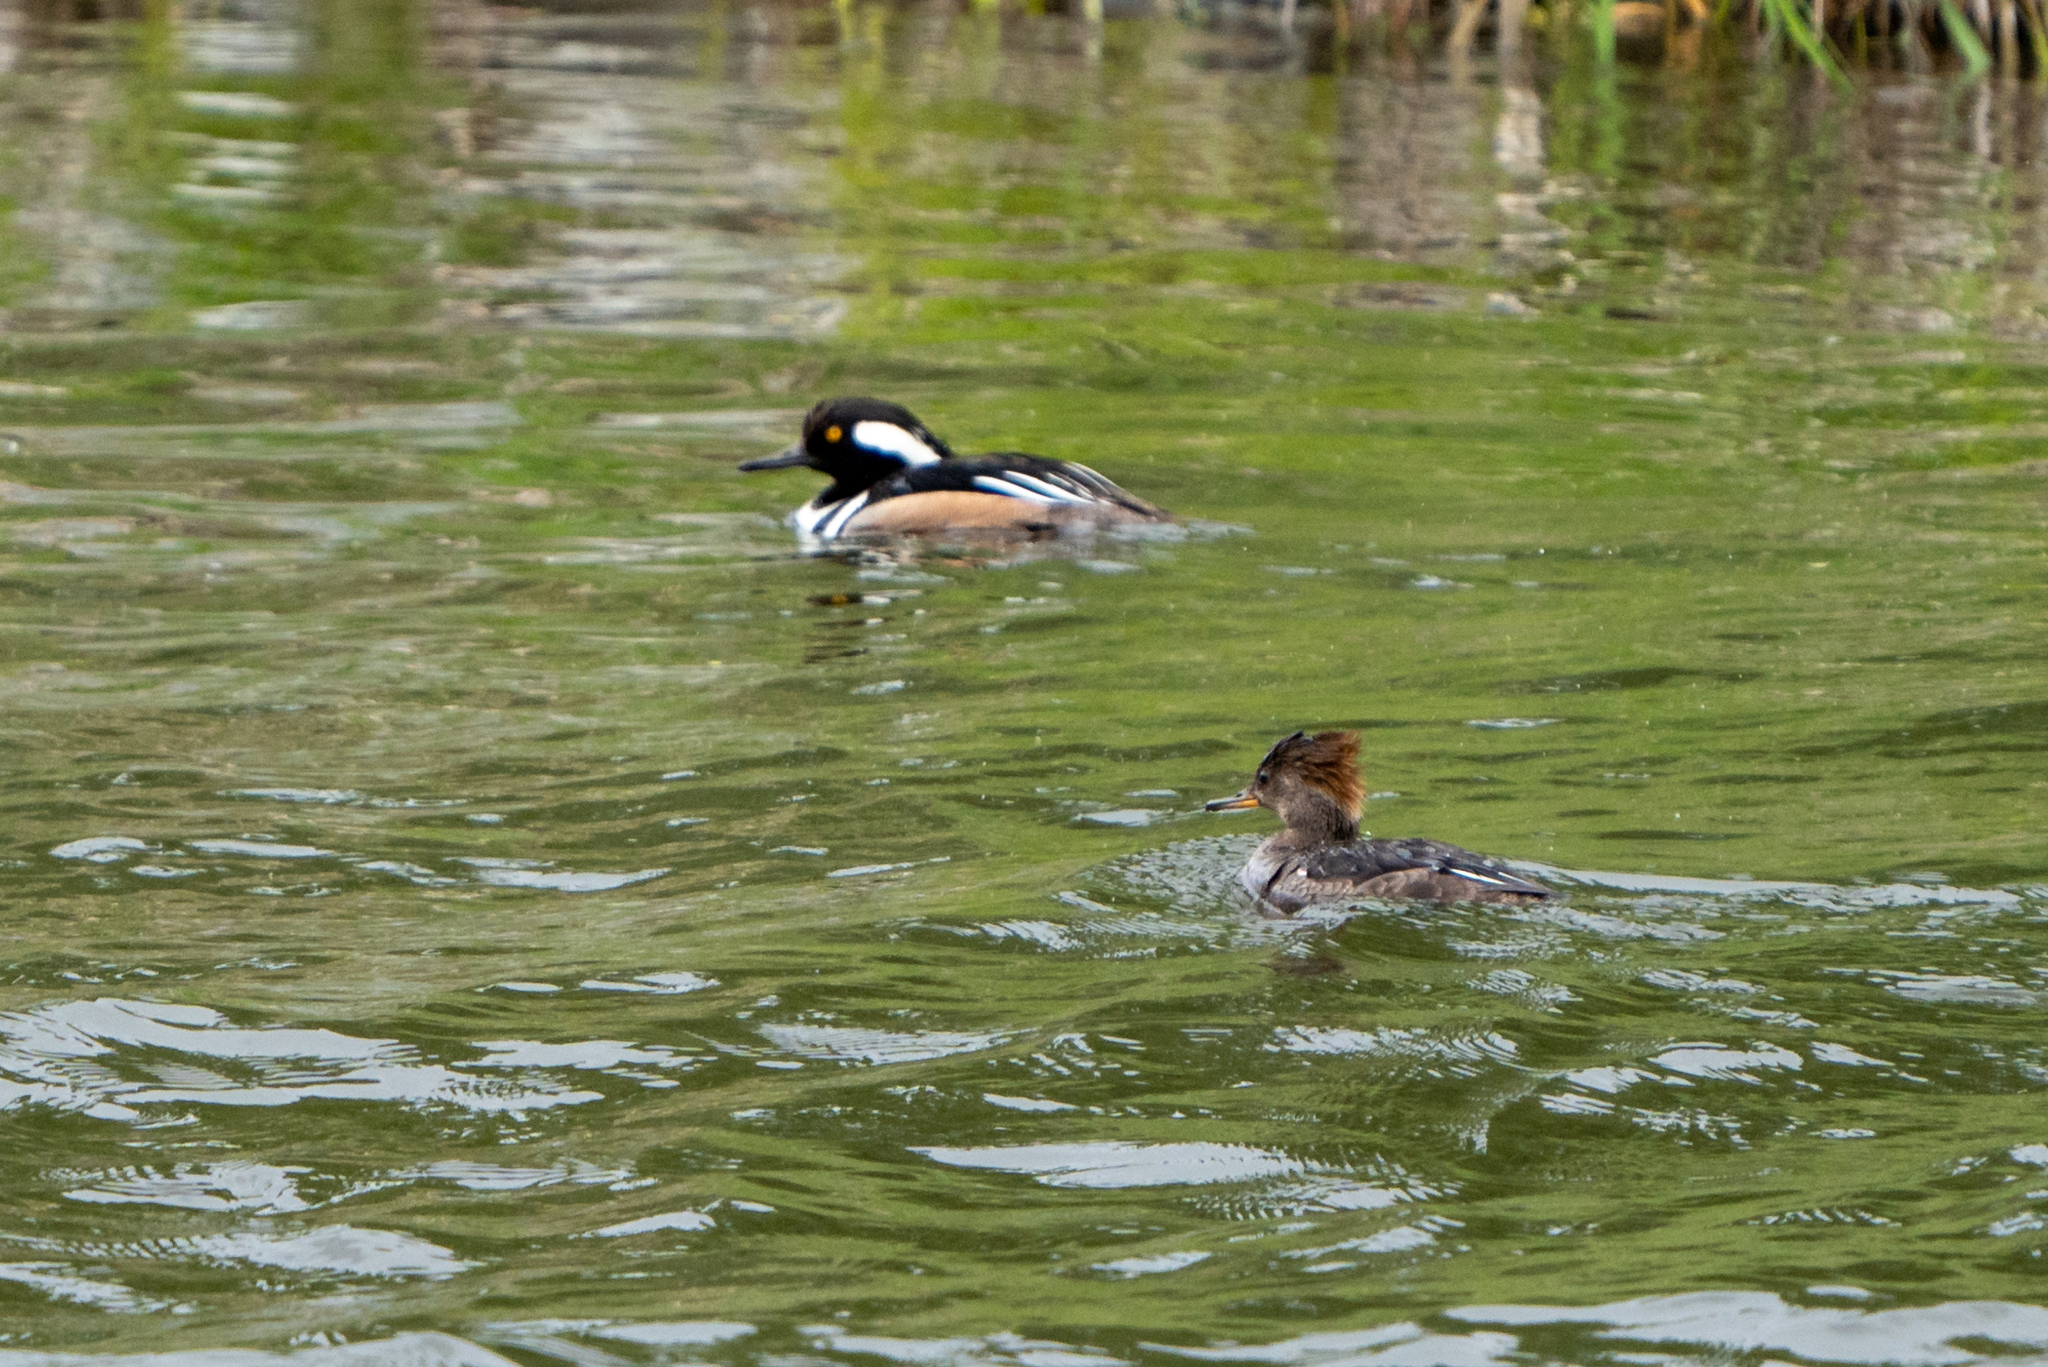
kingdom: Animalia
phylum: Chordata
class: Aves
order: Anseriformes
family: Anatidae
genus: Lophodytes
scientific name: Lophodytes cucullatus
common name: Hooded merganser
